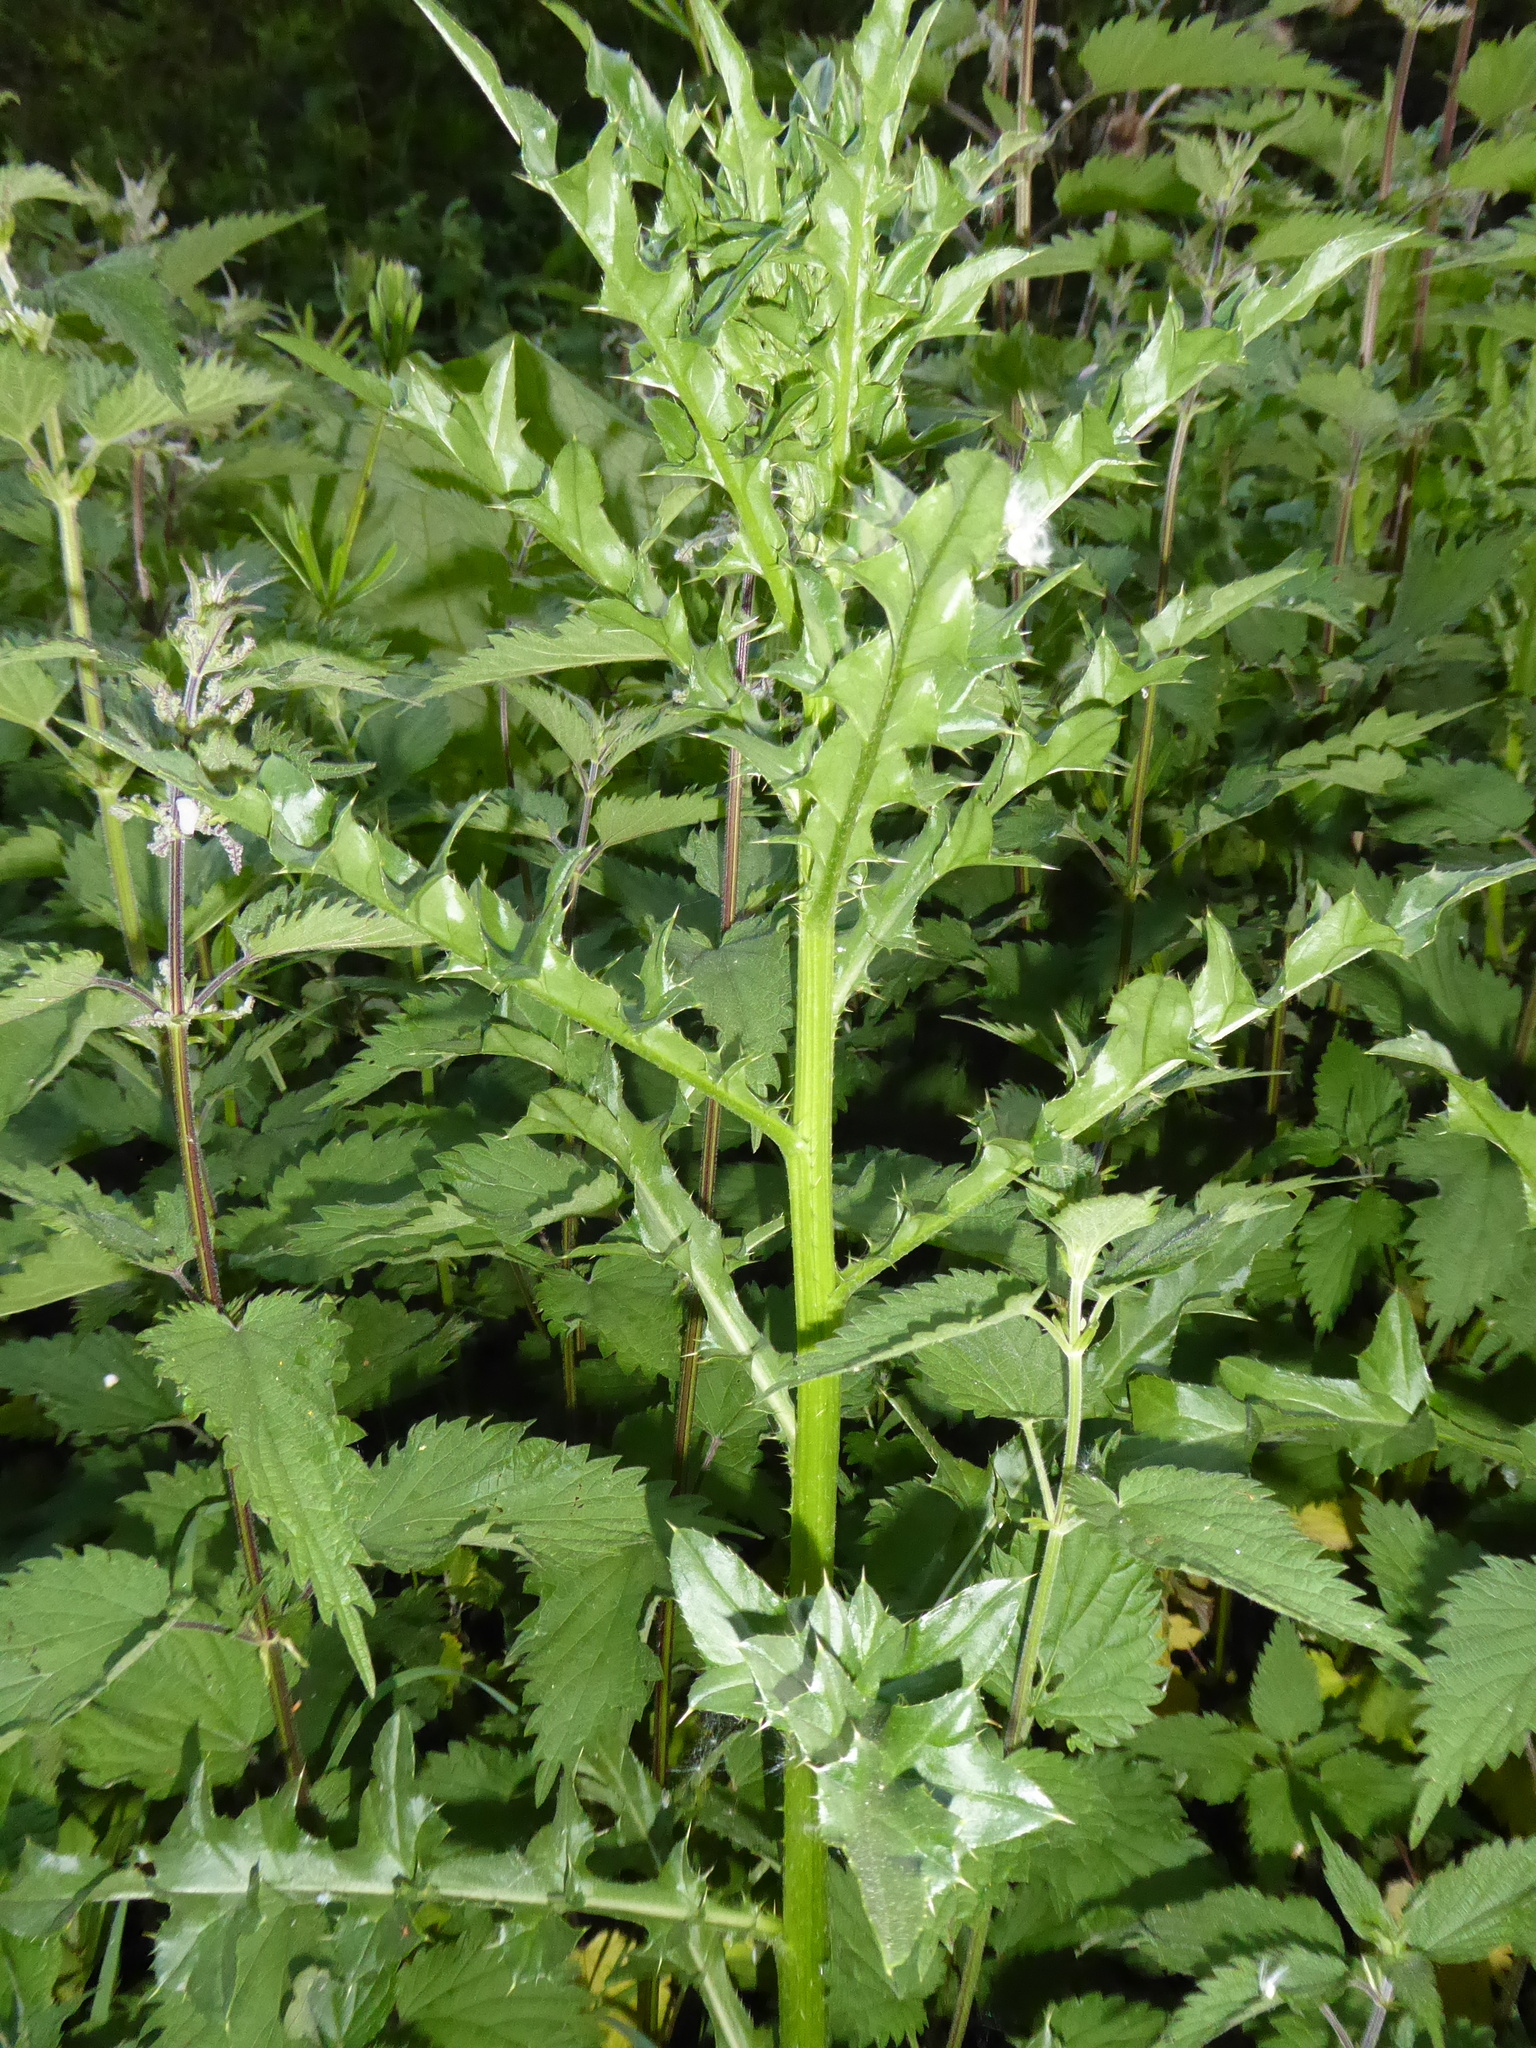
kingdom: Plantae
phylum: Tracheophyta
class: Magnoliopsida
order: Asterales
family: Asteraceae
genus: Cirsium
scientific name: Cirsium arvense
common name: Creeping thistle
